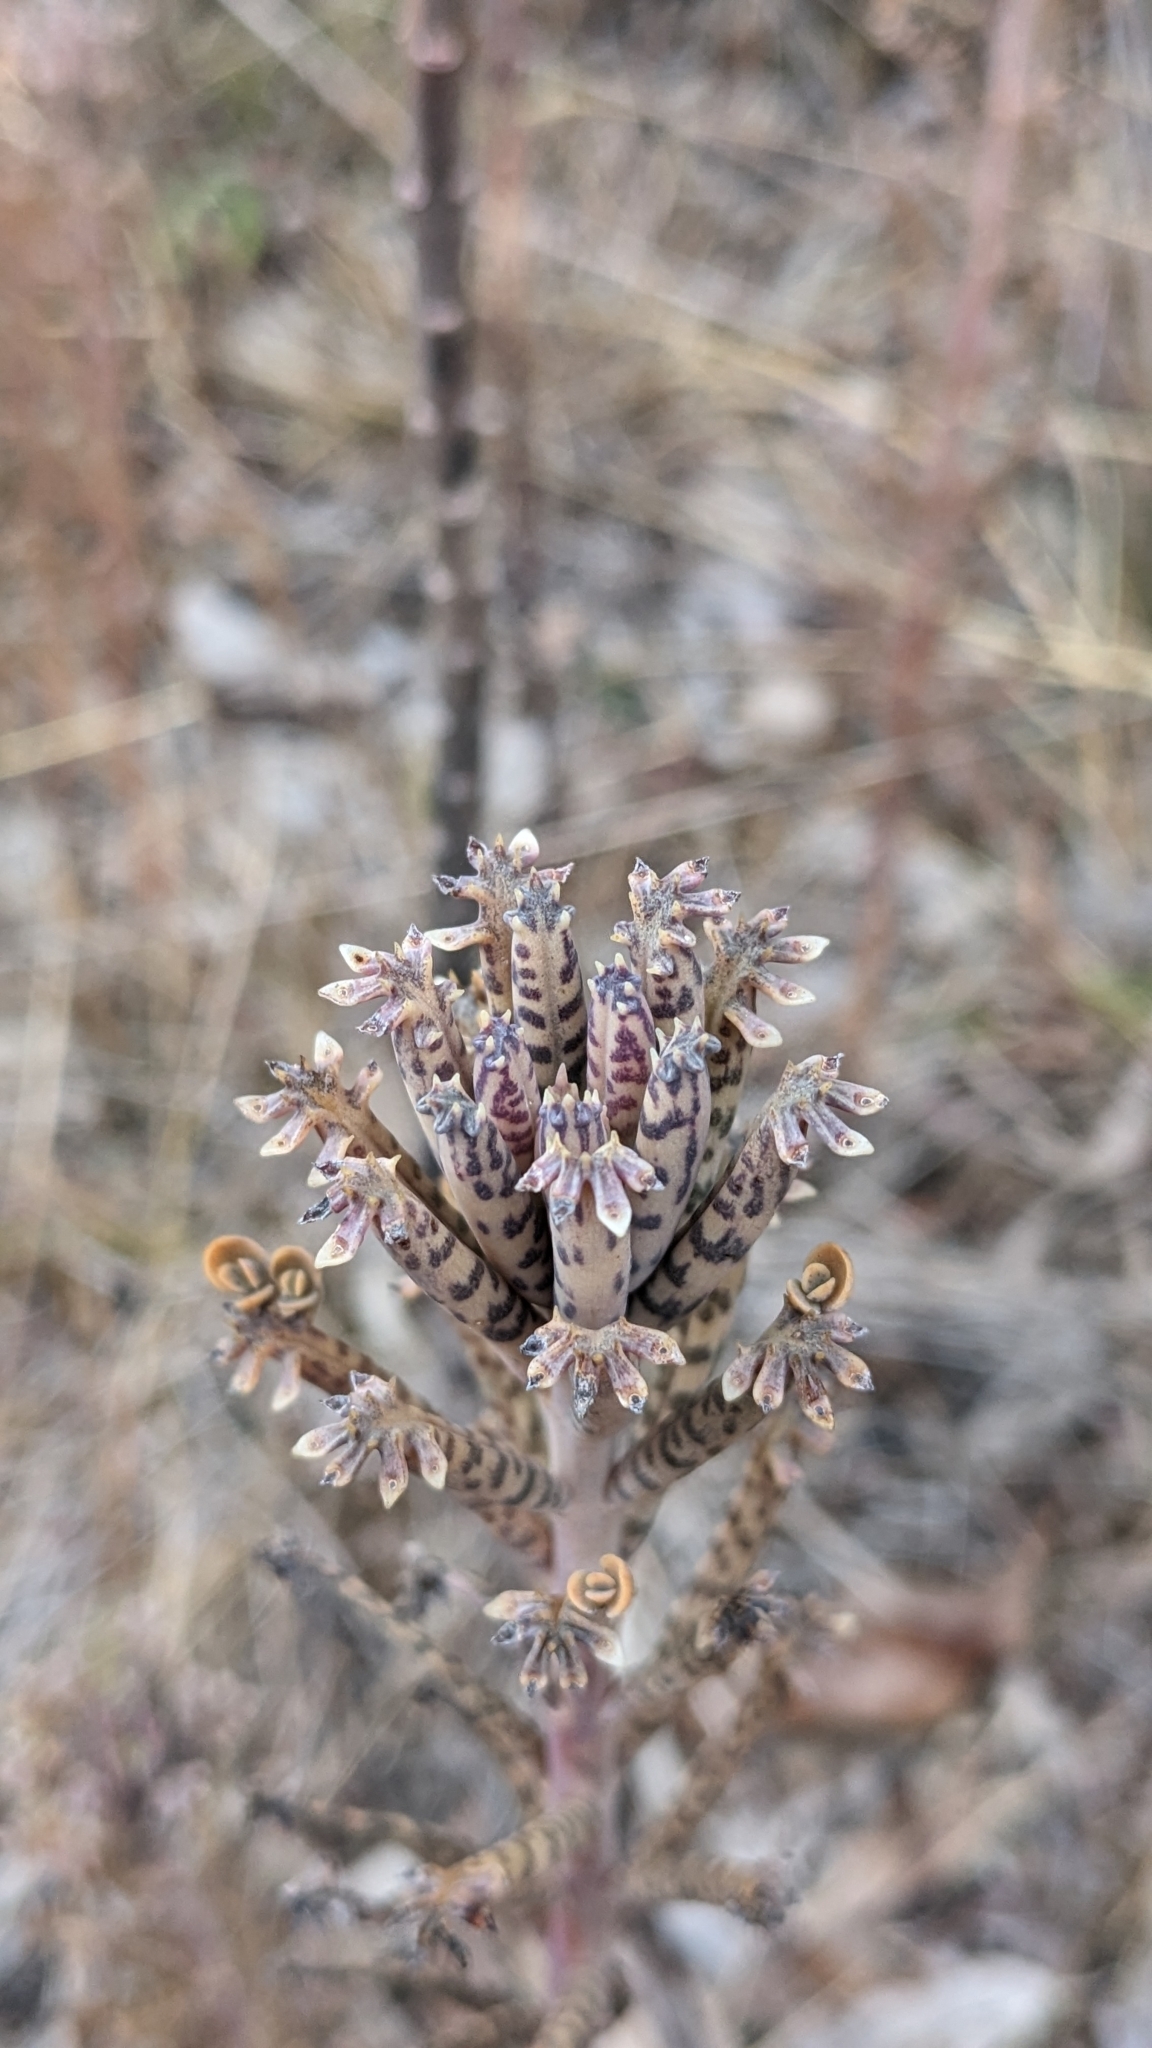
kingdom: Plantae
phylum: Tracheophyta
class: Magnoliopsida
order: Saxifragales
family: Crassulaceae
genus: Kalanchoe
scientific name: Kalanchoe delagoensis
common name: Chandelier plant
